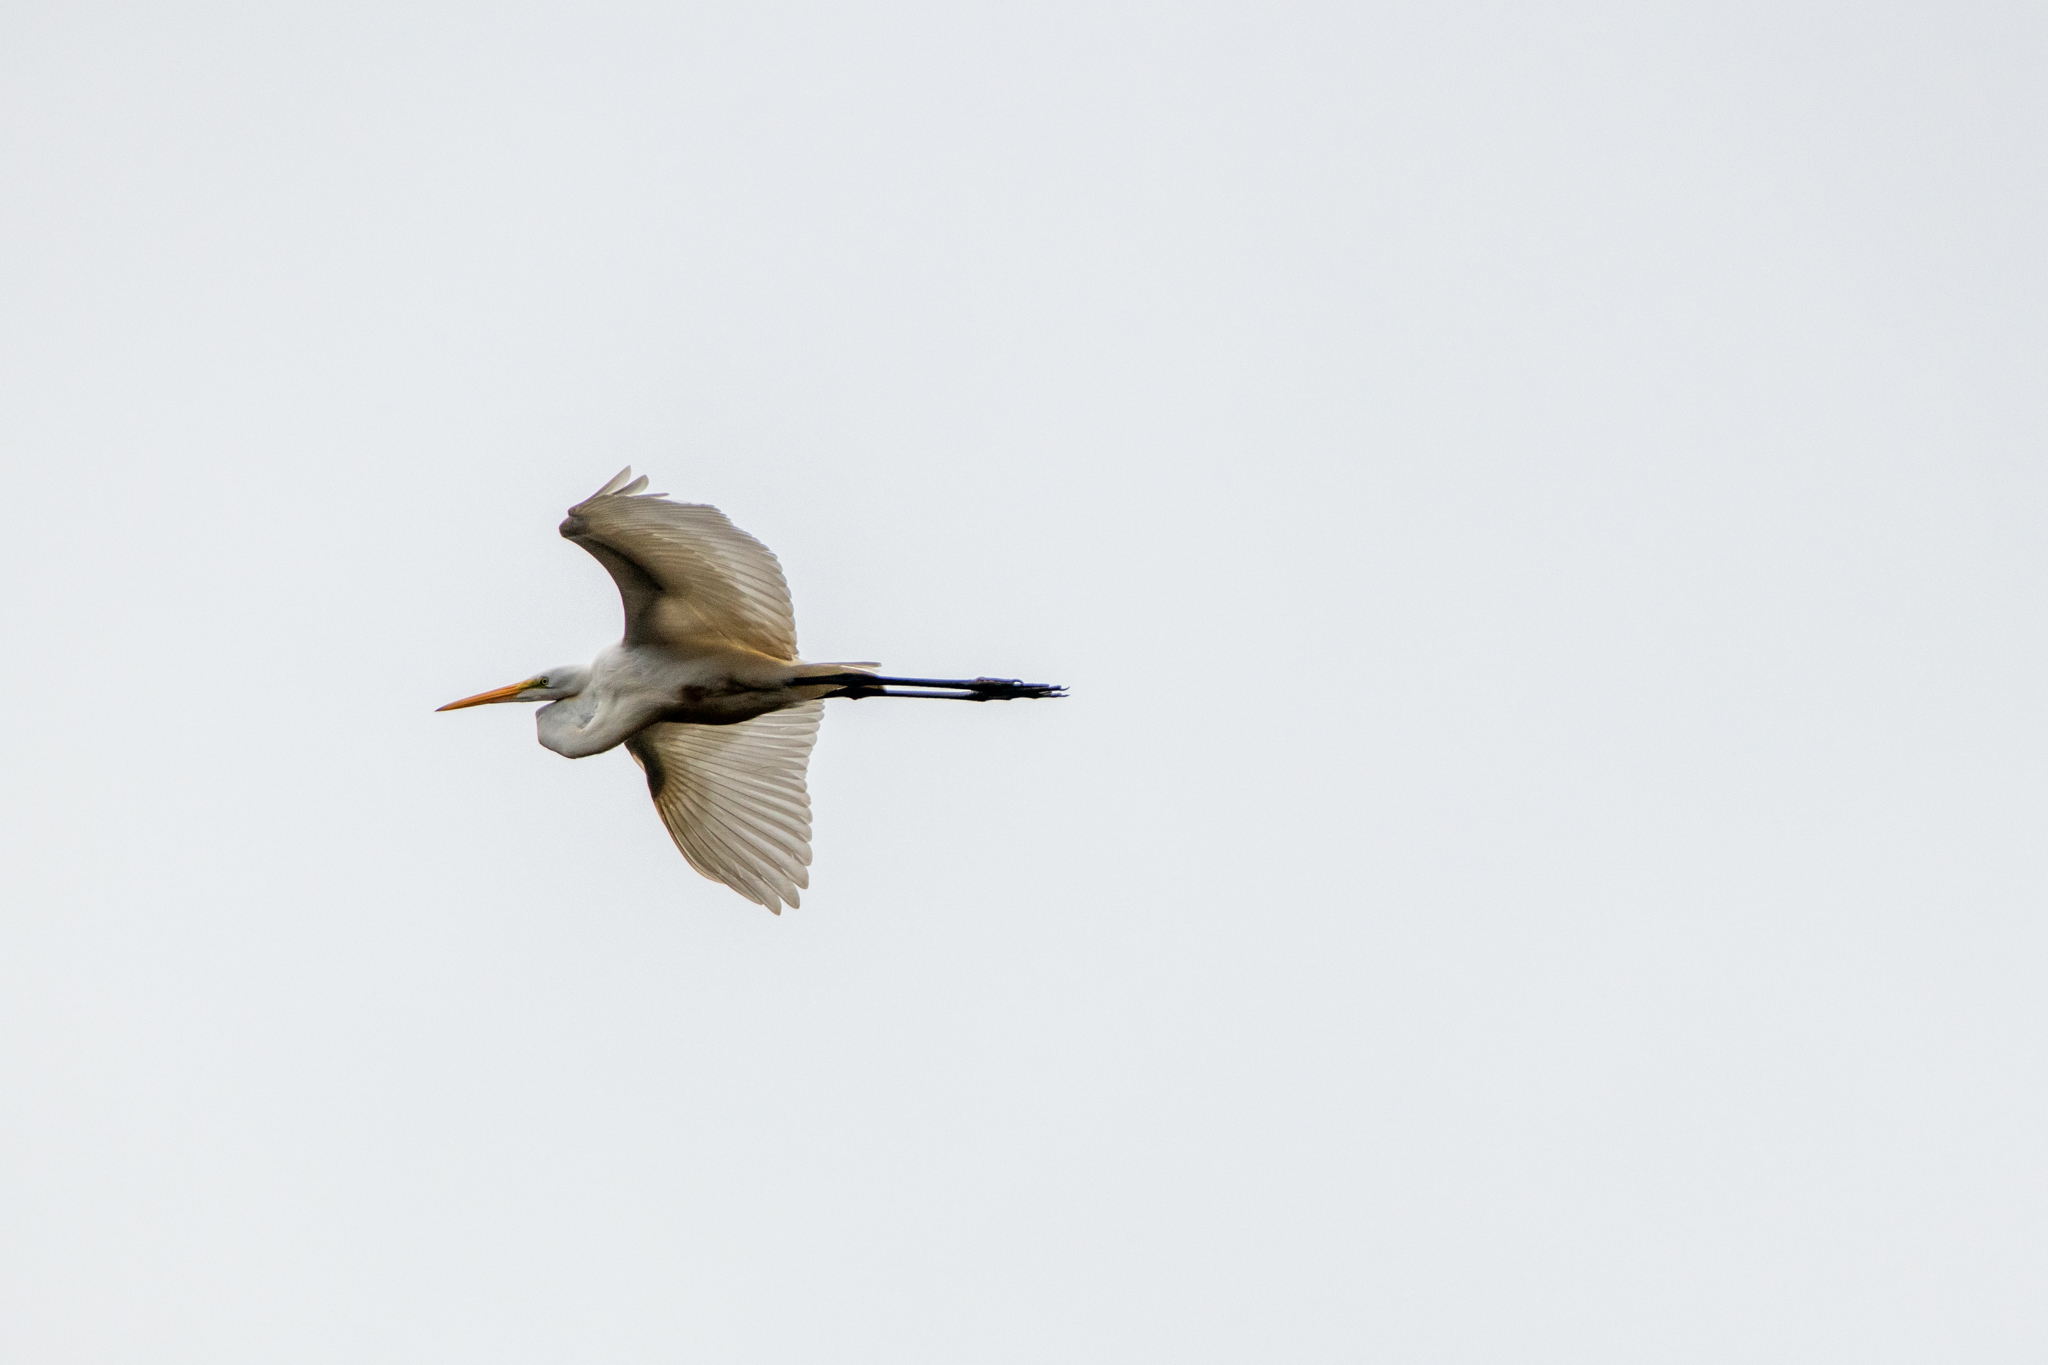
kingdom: Animalia
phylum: Chordata
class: Aves
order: Pelecaniformes
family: Ardeidae
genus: Ardea
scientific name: Ardea alba
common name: Great egret
